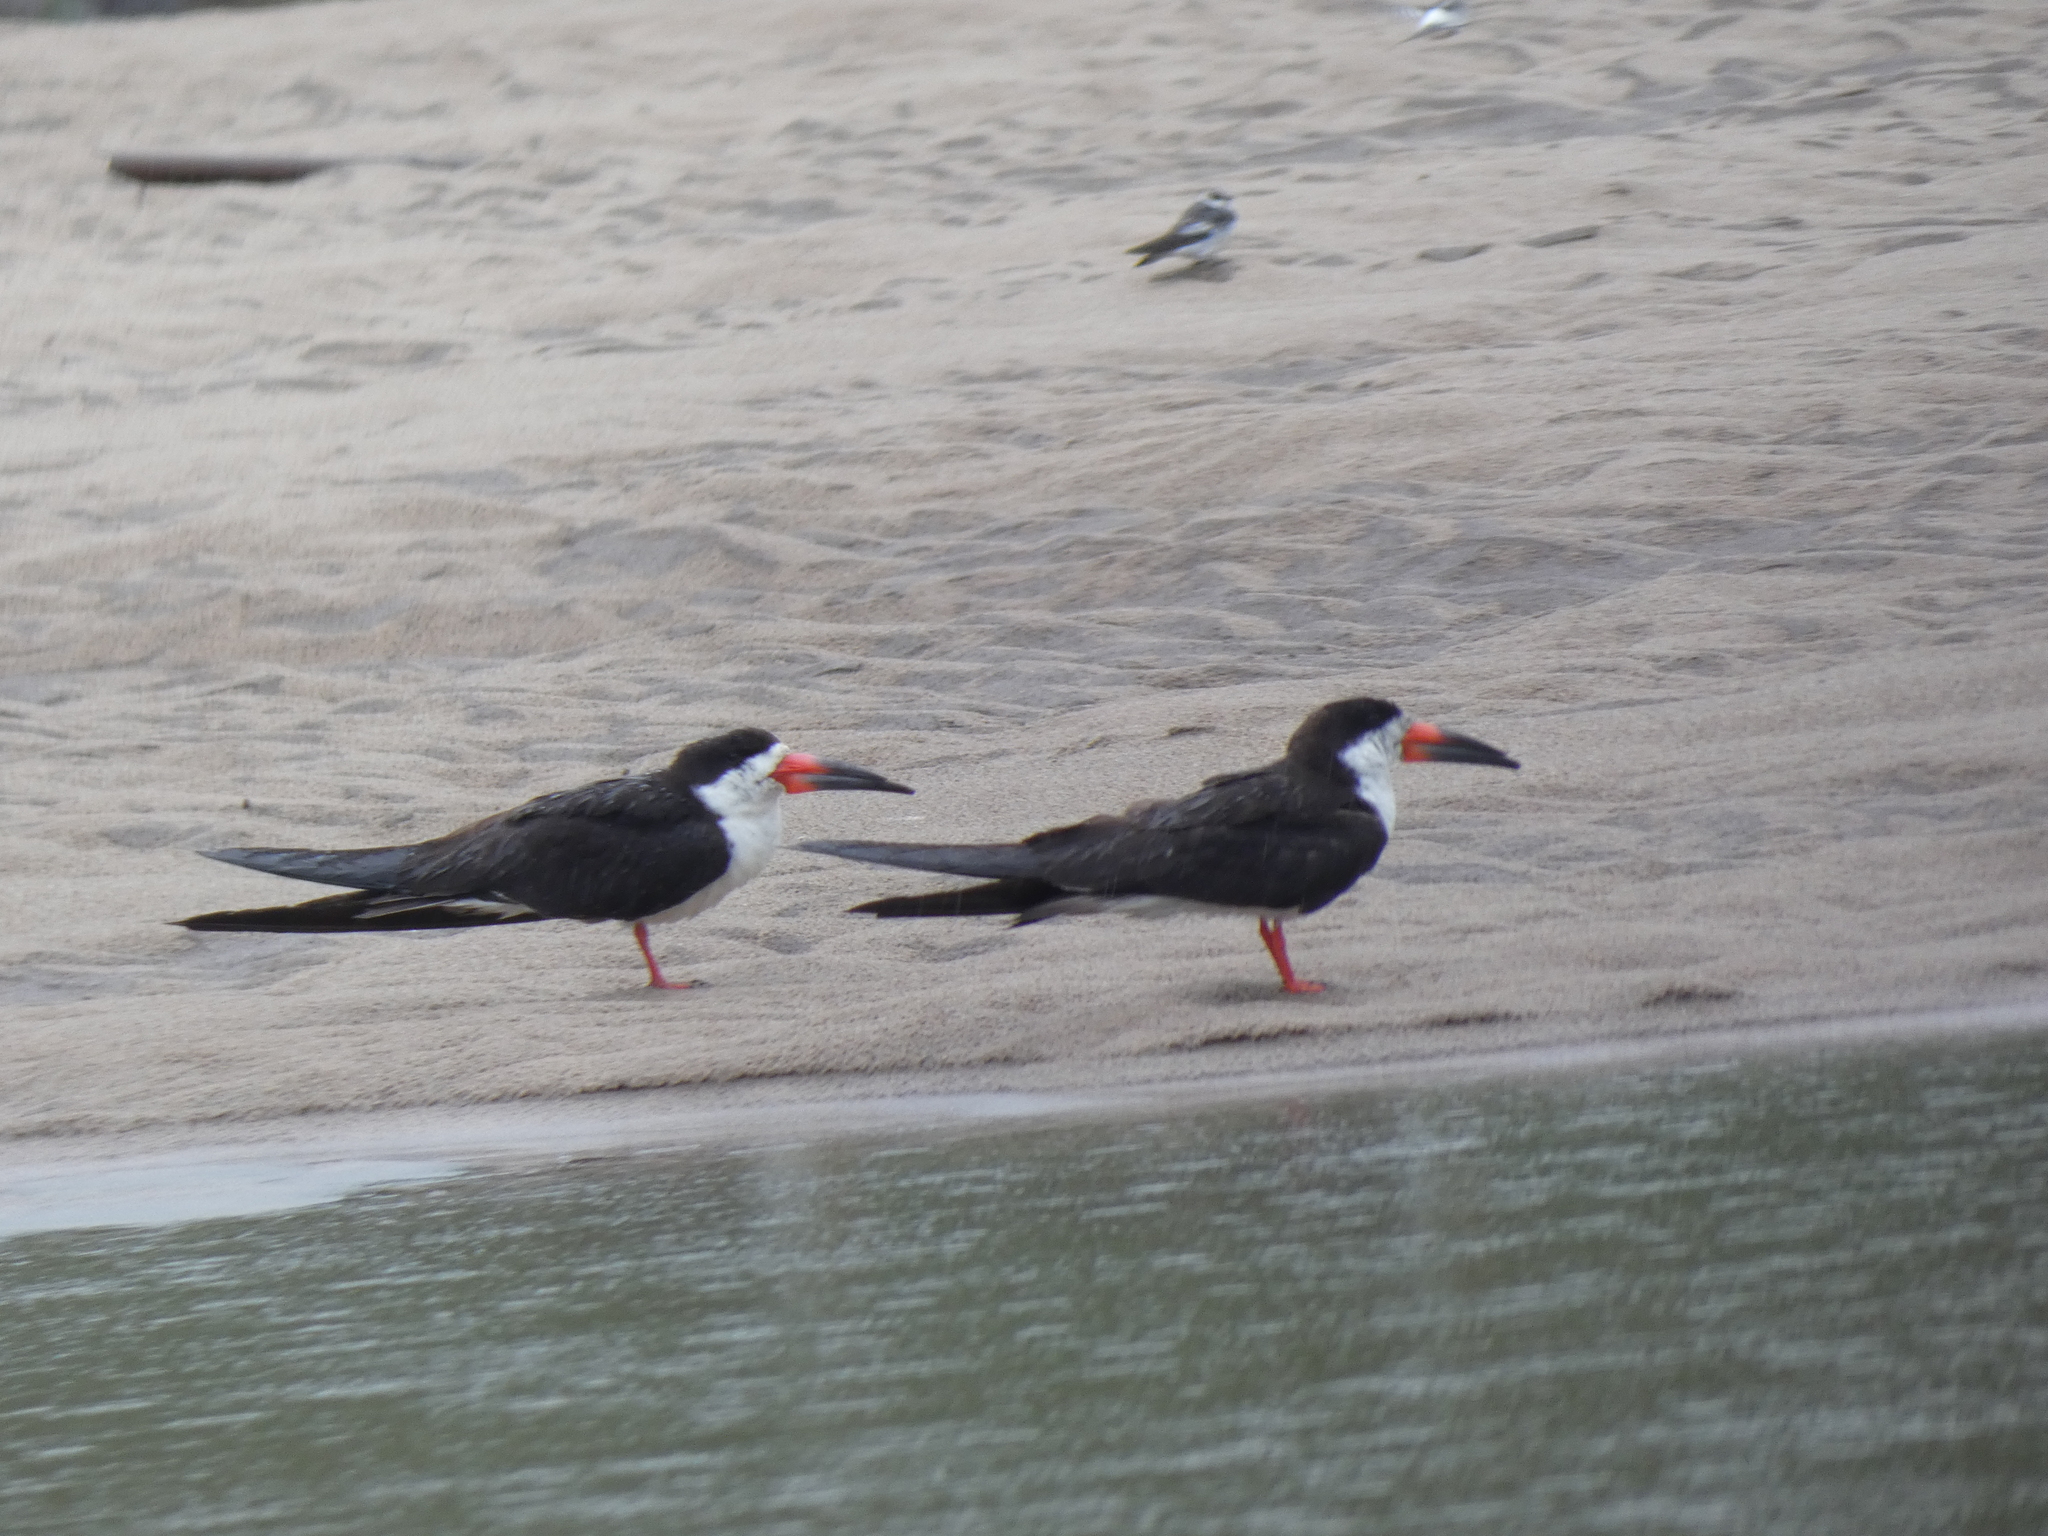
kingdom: Animalia
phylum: Chordata
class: Aves
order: Charadriiformes
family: Laridae
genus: Rynchops
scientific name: Rynchops niger
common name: Black skimmer
